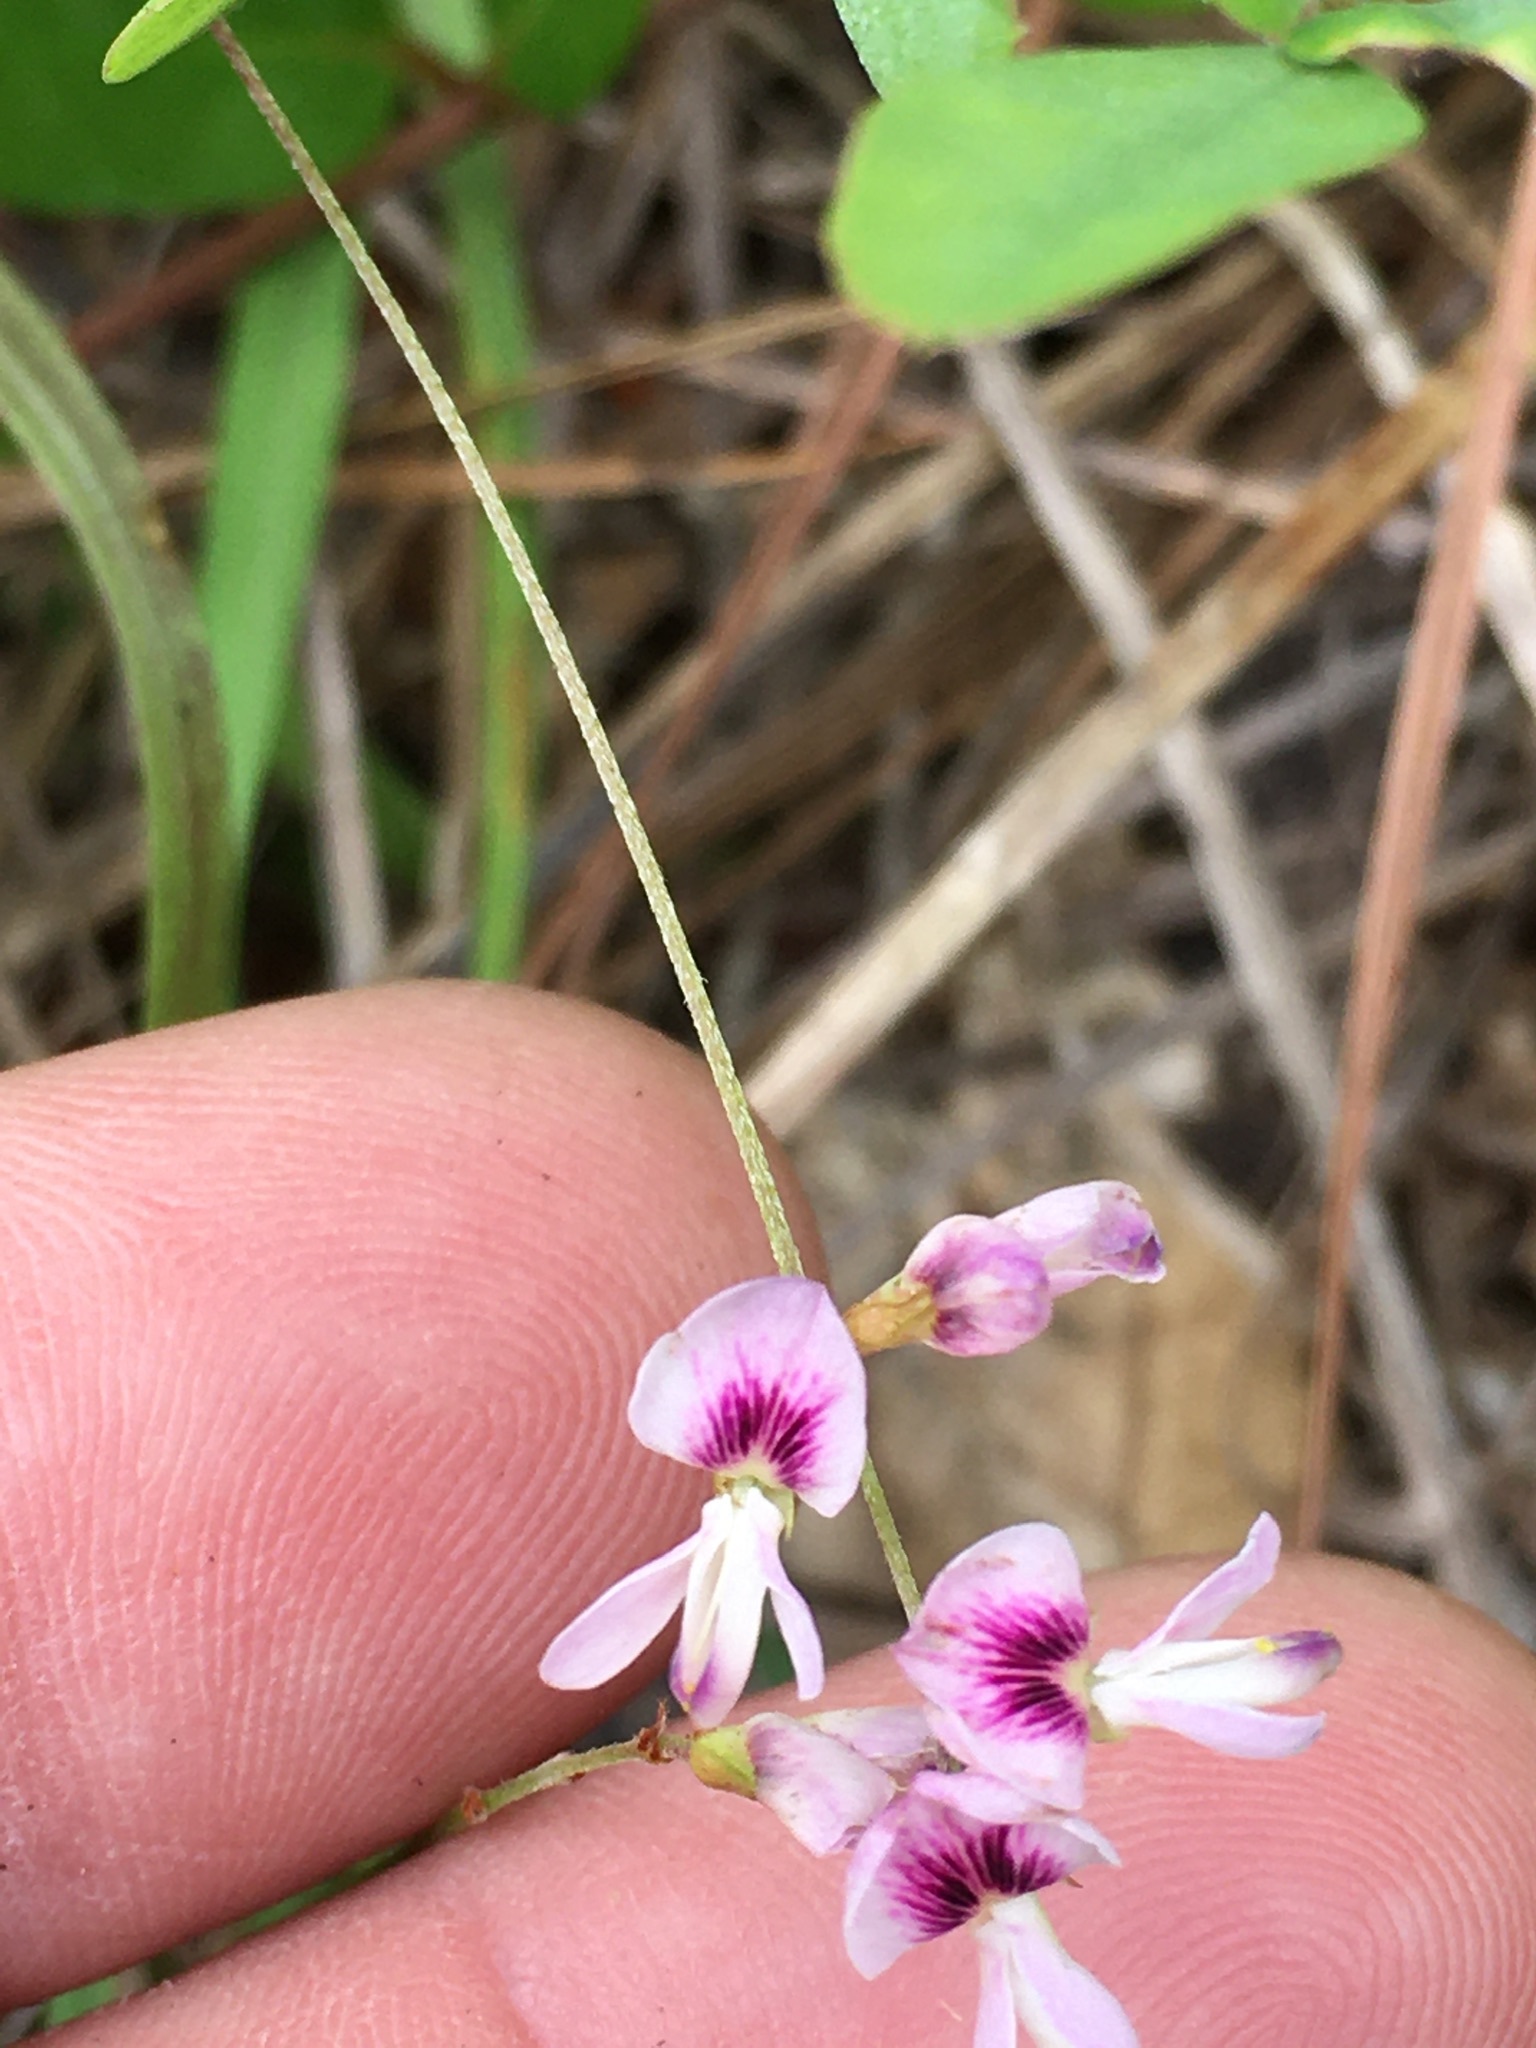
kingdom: Plantae
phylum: Tracheophyta
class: Magnoliopsida
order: Fabales
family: Fabaceae
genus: Lespedeza
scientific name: Lespedeza repens
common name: Creeping bush-clover
